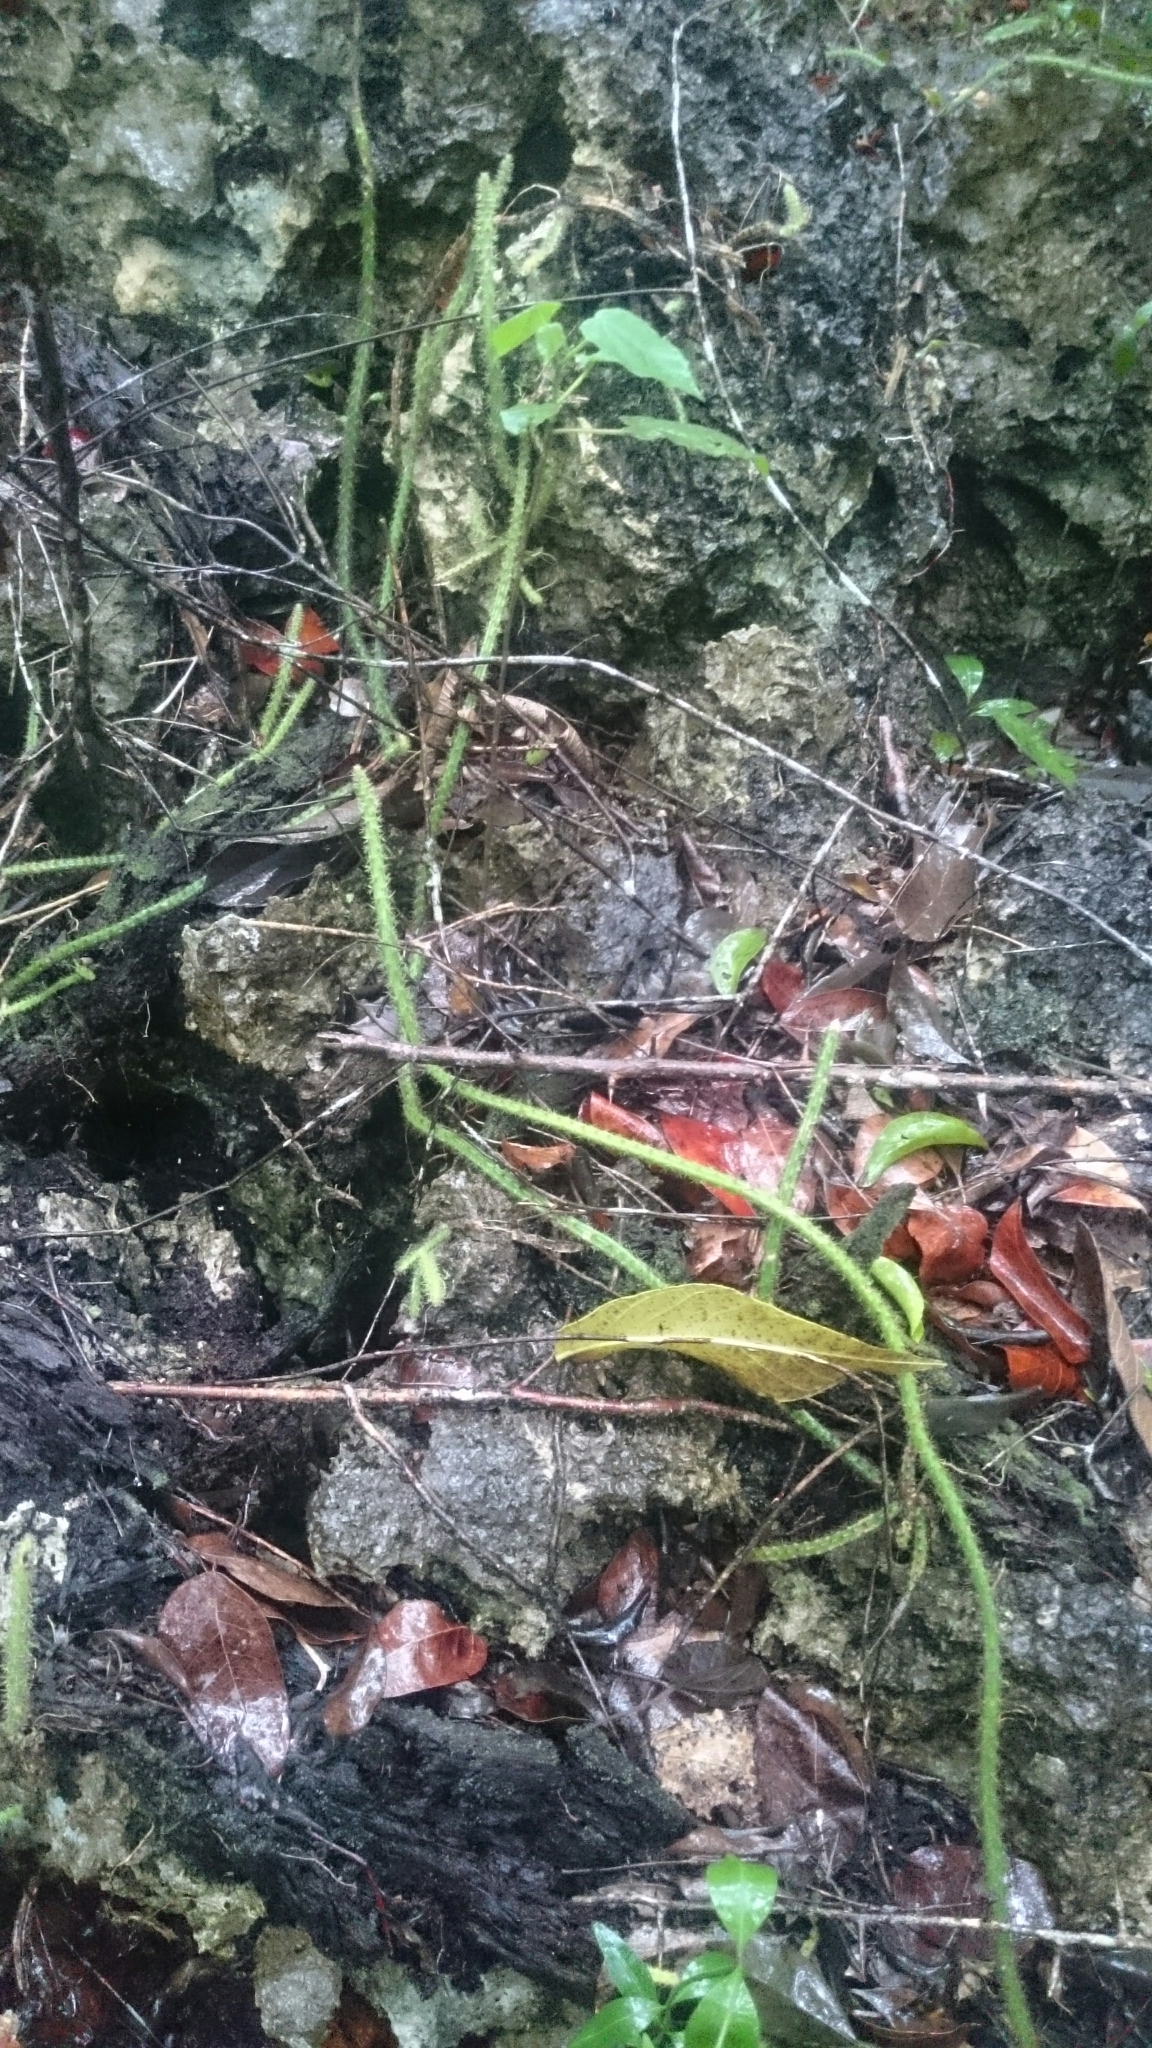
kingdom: Plantae
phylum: Tracheophyta
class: Magnoliopsida
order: Caryophyllales
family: Cactaceae
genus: Selenicereus
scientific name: Selenicereus grandiflorus
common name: Queen of the night
